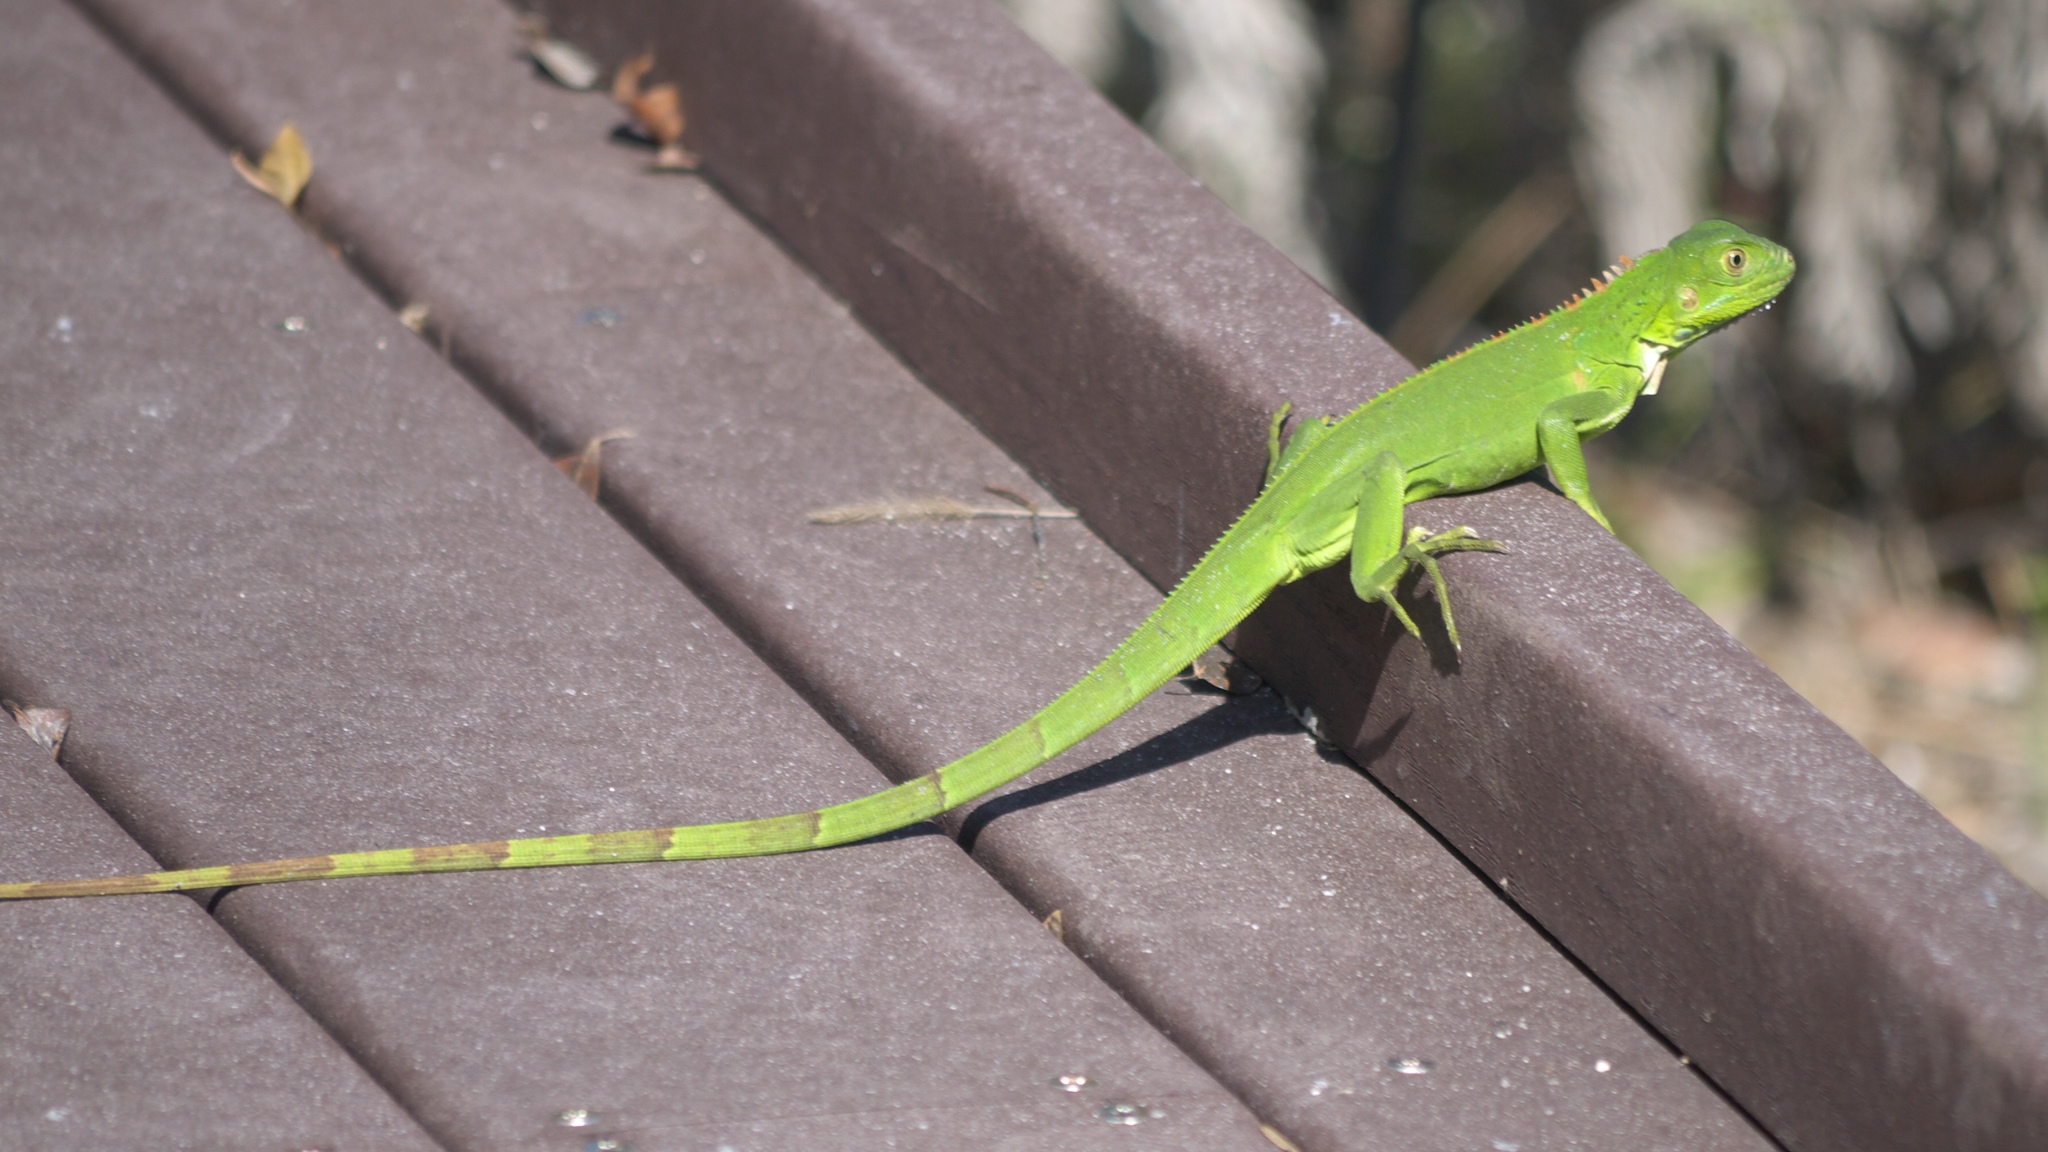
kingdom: Animalia
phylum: Chordata
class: Squamata
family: Iguanidae
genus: Iguana
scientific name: Iguana iguana
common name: Green iguana
